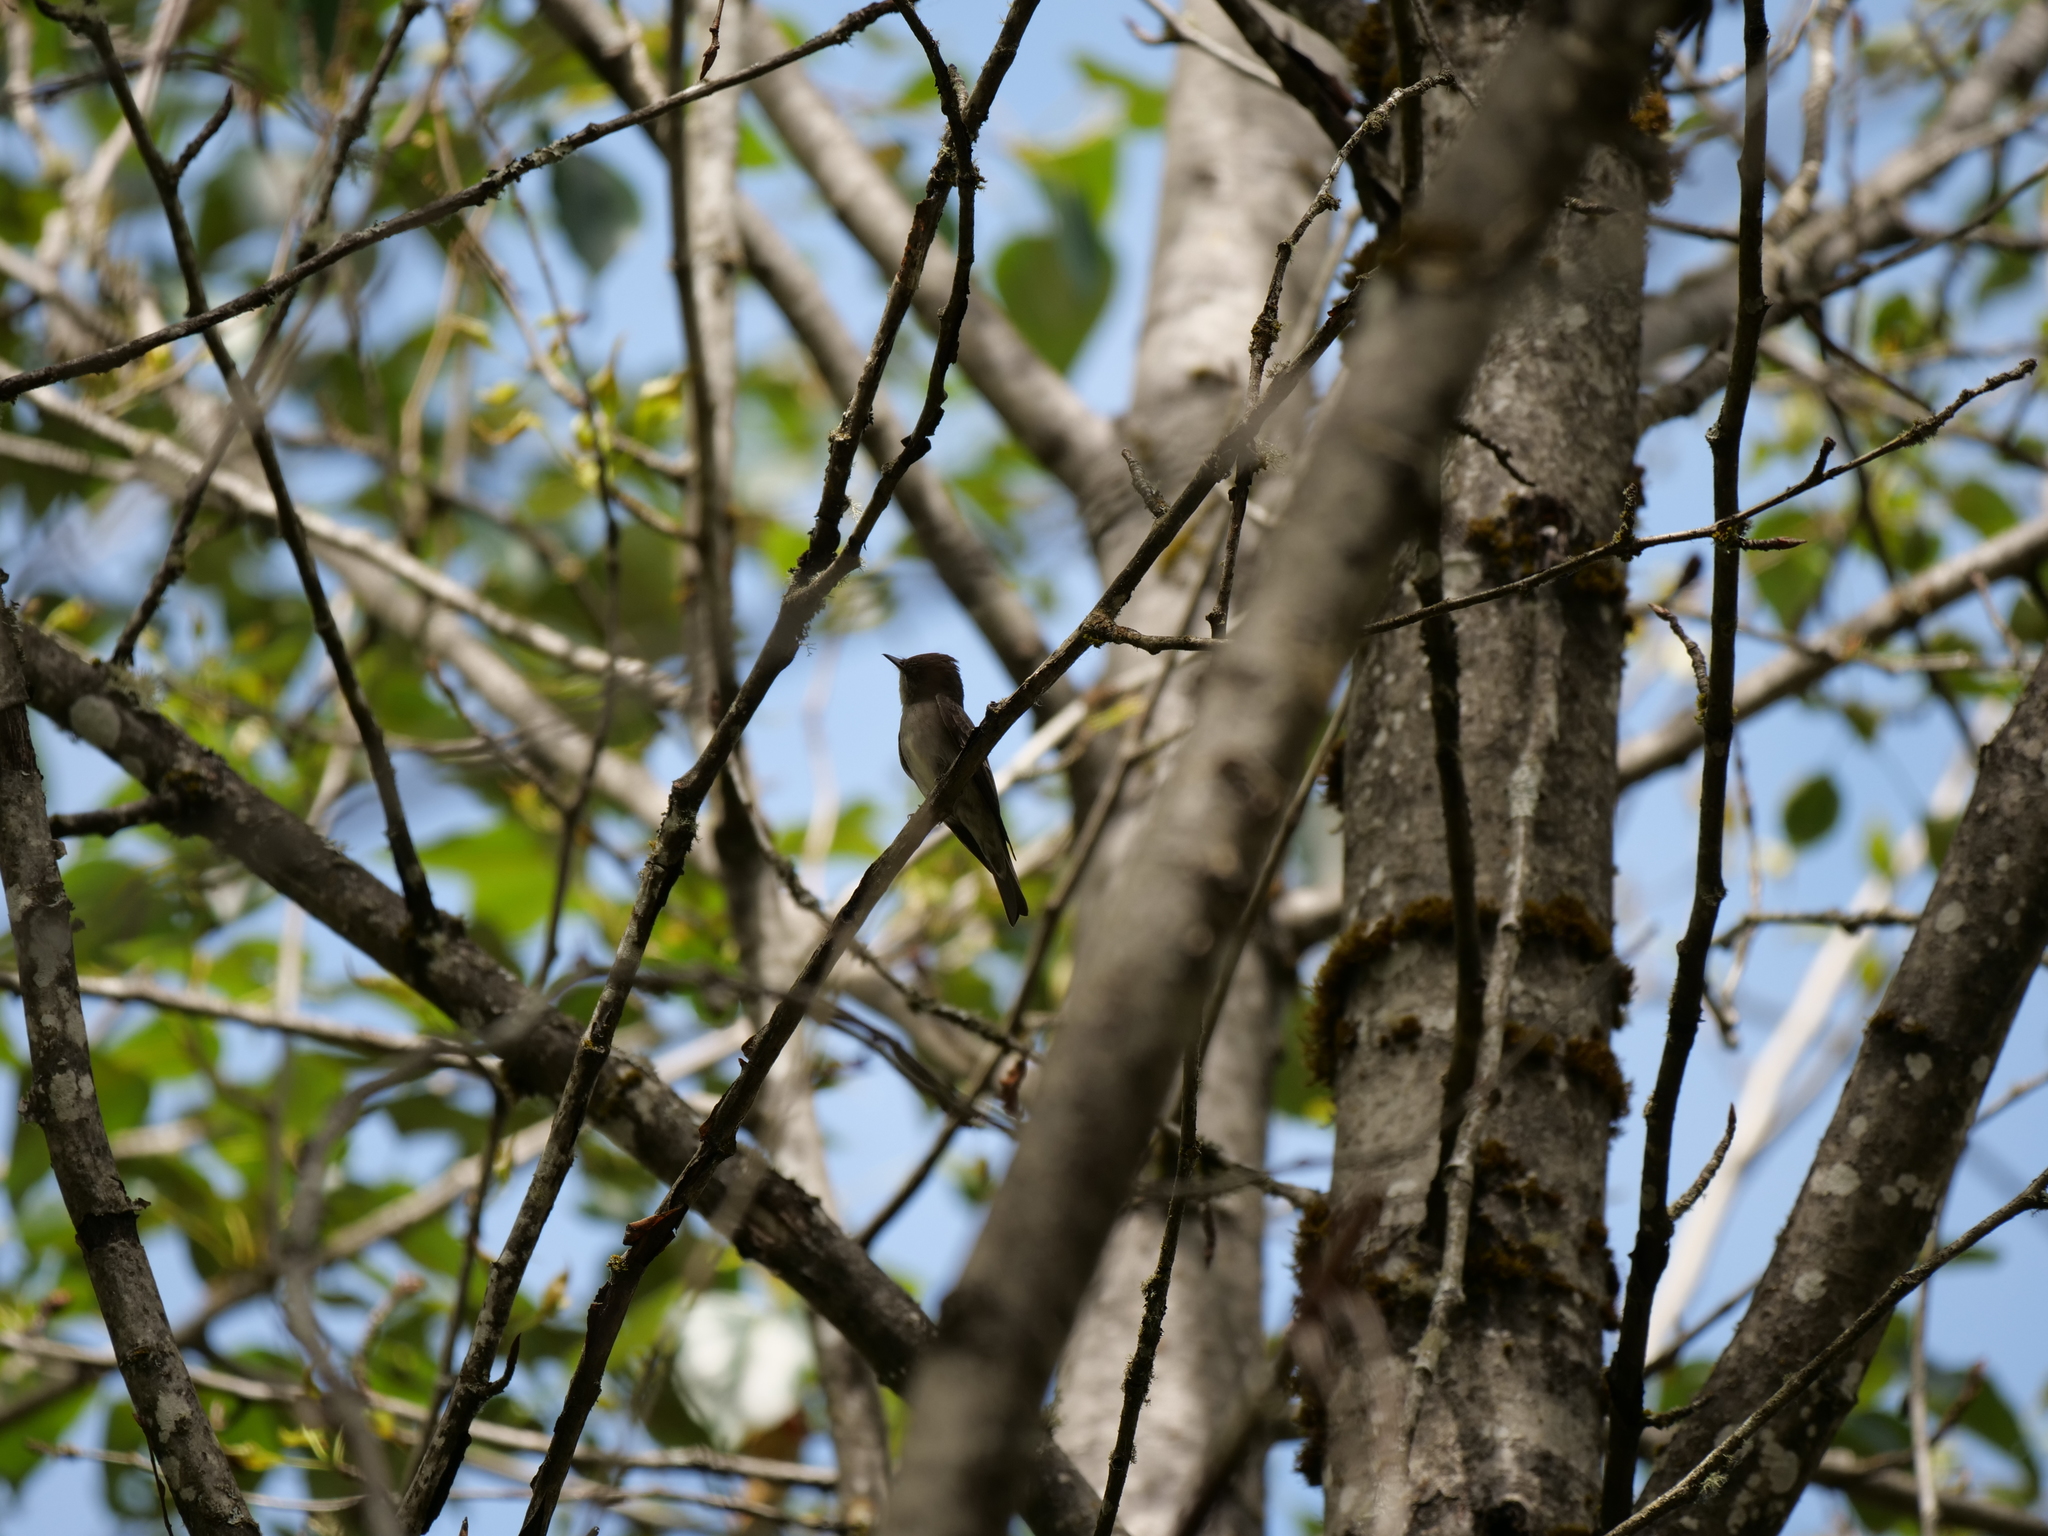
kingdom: Animalia
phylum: Chordata
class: Aves
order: Passeriformes
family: Tyrannidae
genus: Contopus
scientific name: Contopus sordidulus
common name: Western wood-pewee
